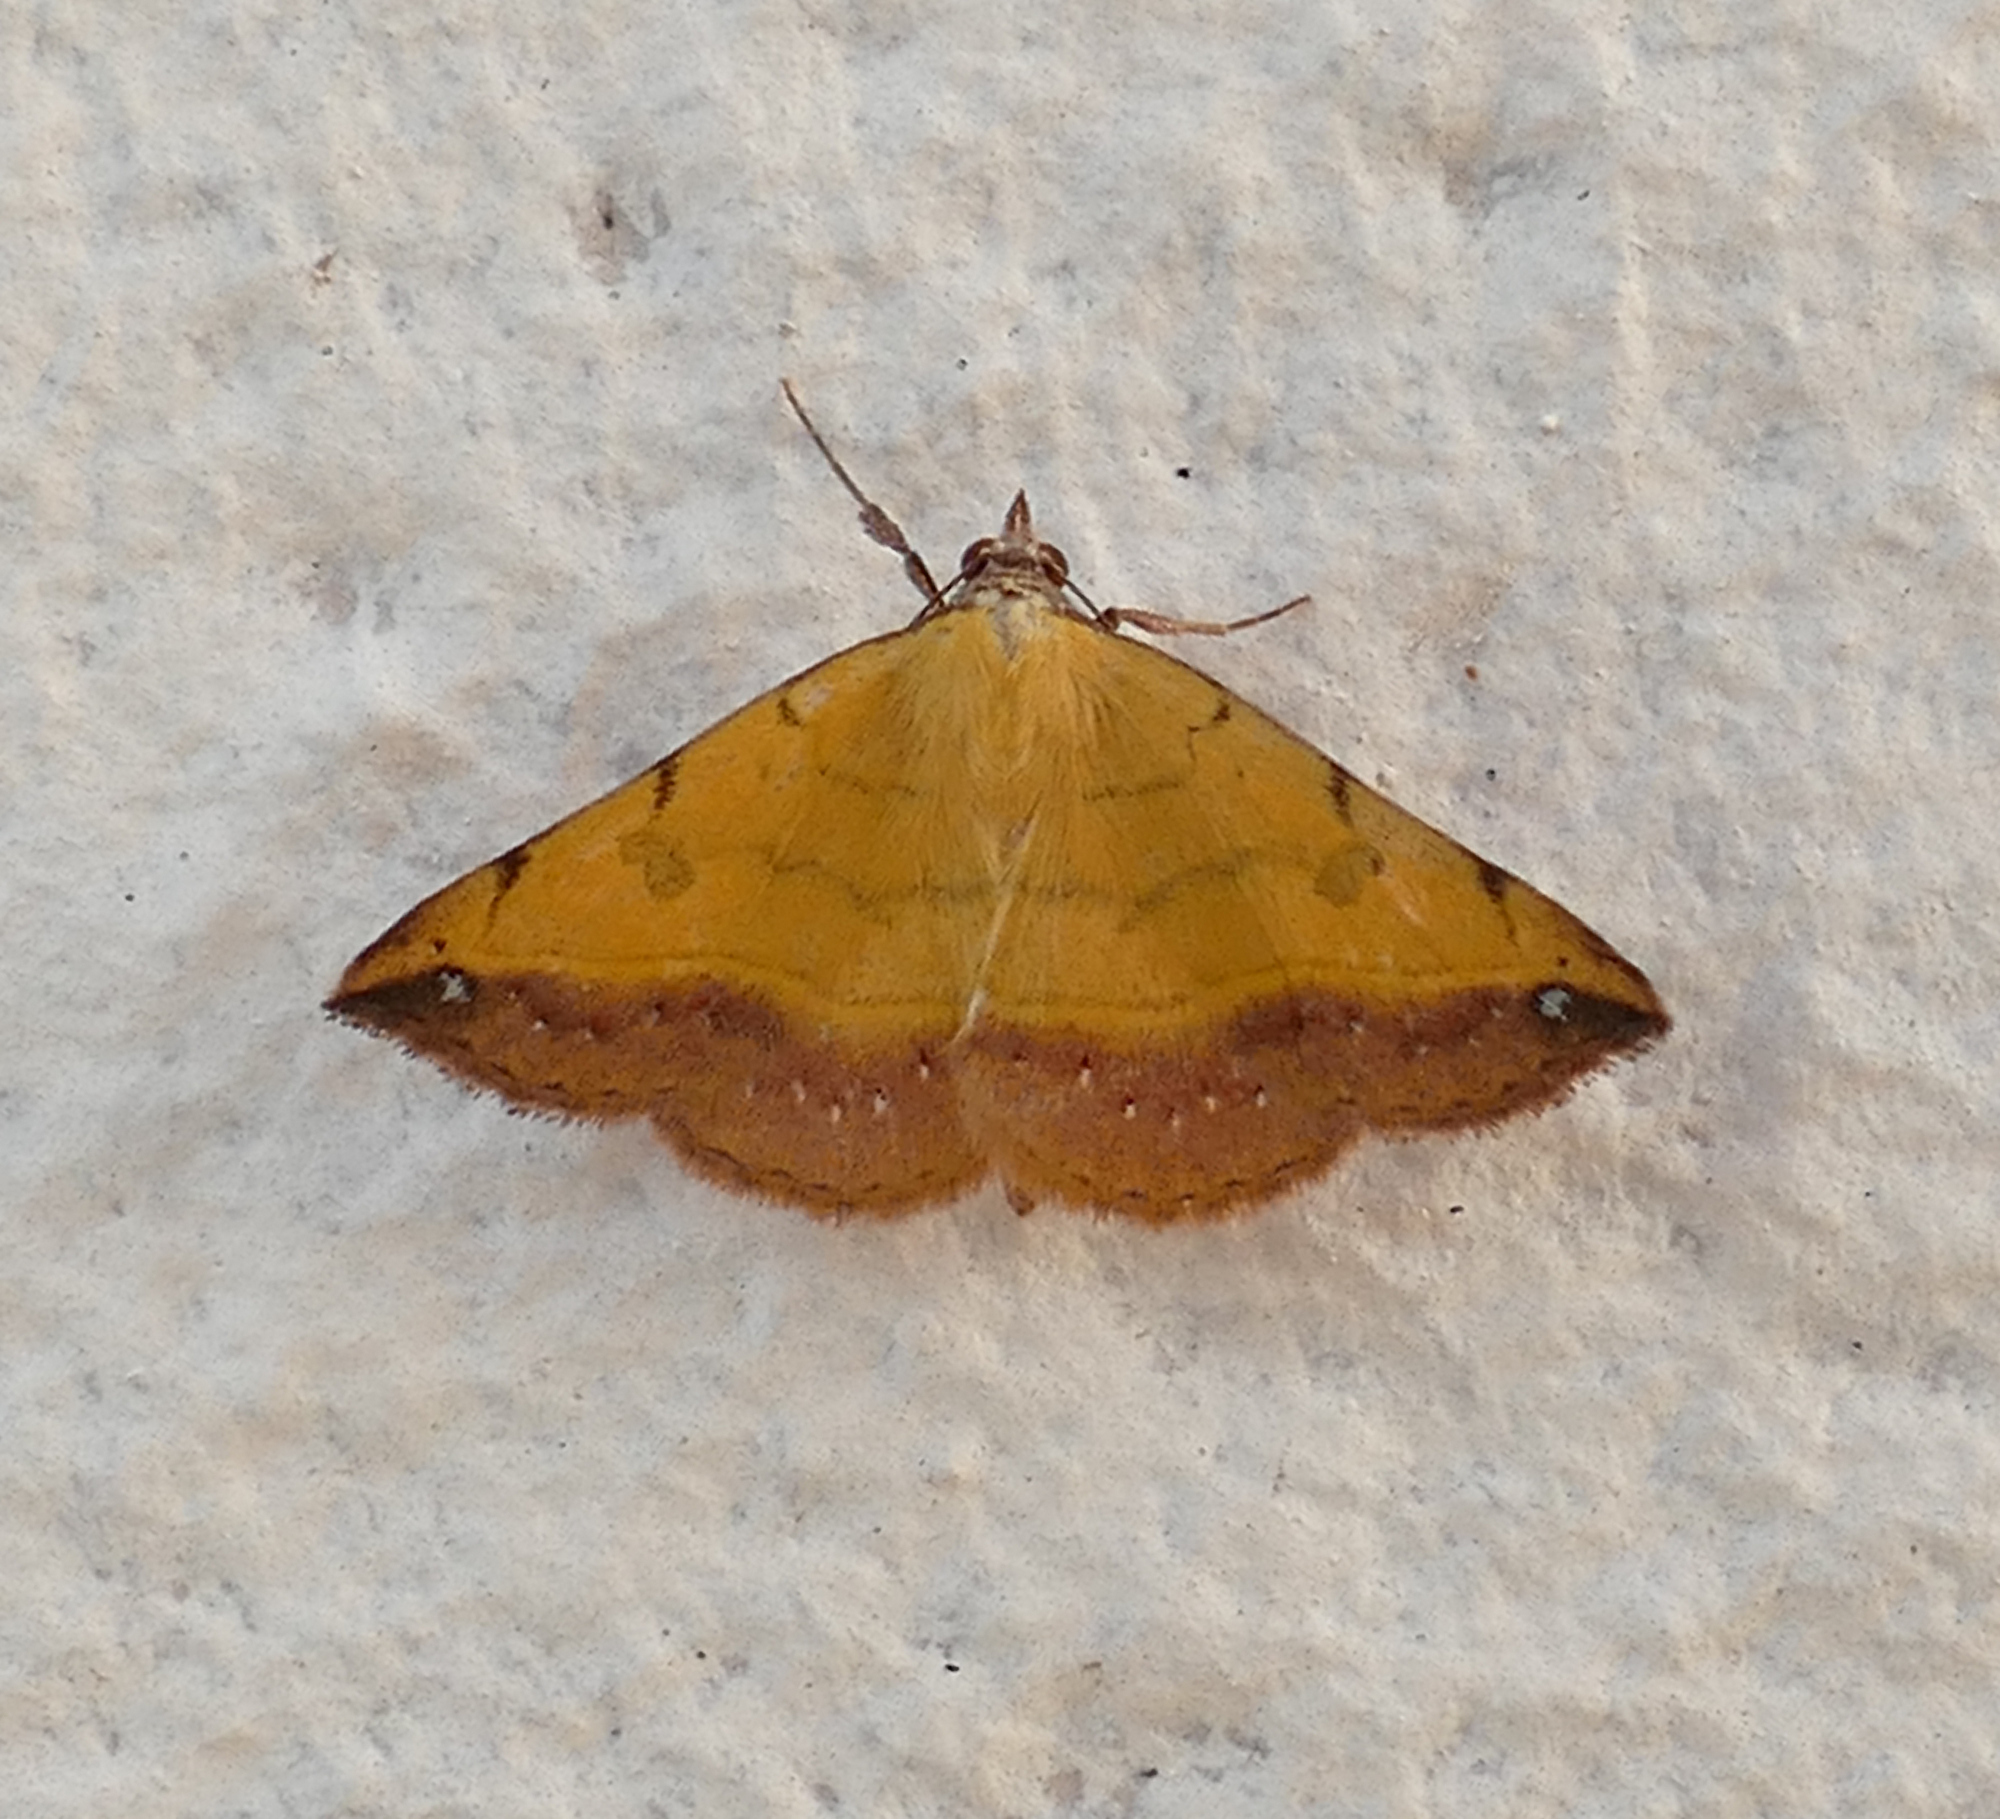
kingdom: Animalia
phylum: Arthropoda
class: Insecta
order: Lepidoptera
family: Erebidae
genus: Hemeroplanis
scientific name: Hemeroplanis scopulepes
